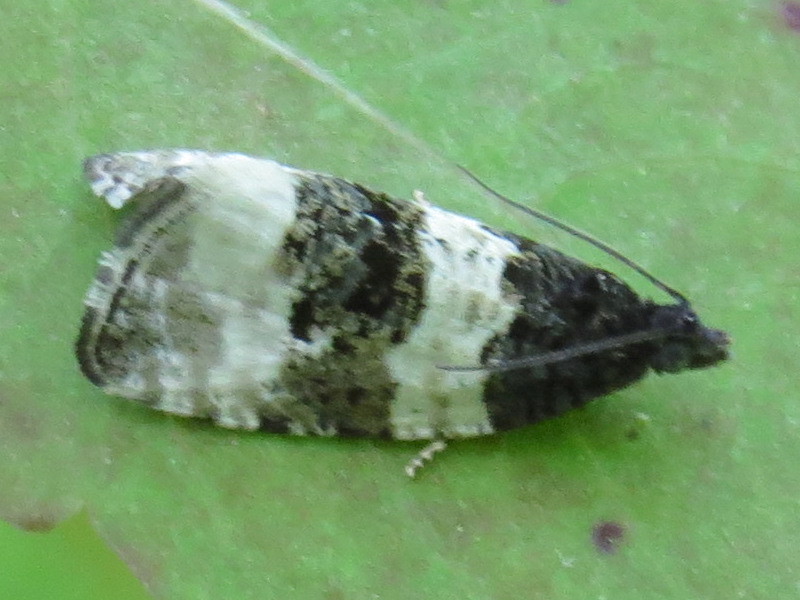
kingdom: Animalia
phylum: Arthropoda
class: Insecta
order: Lepidoptera
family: Tortricidae
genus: Olethreutes
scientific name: Olethreutes bipartitana
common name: Divided olethreutes moth
